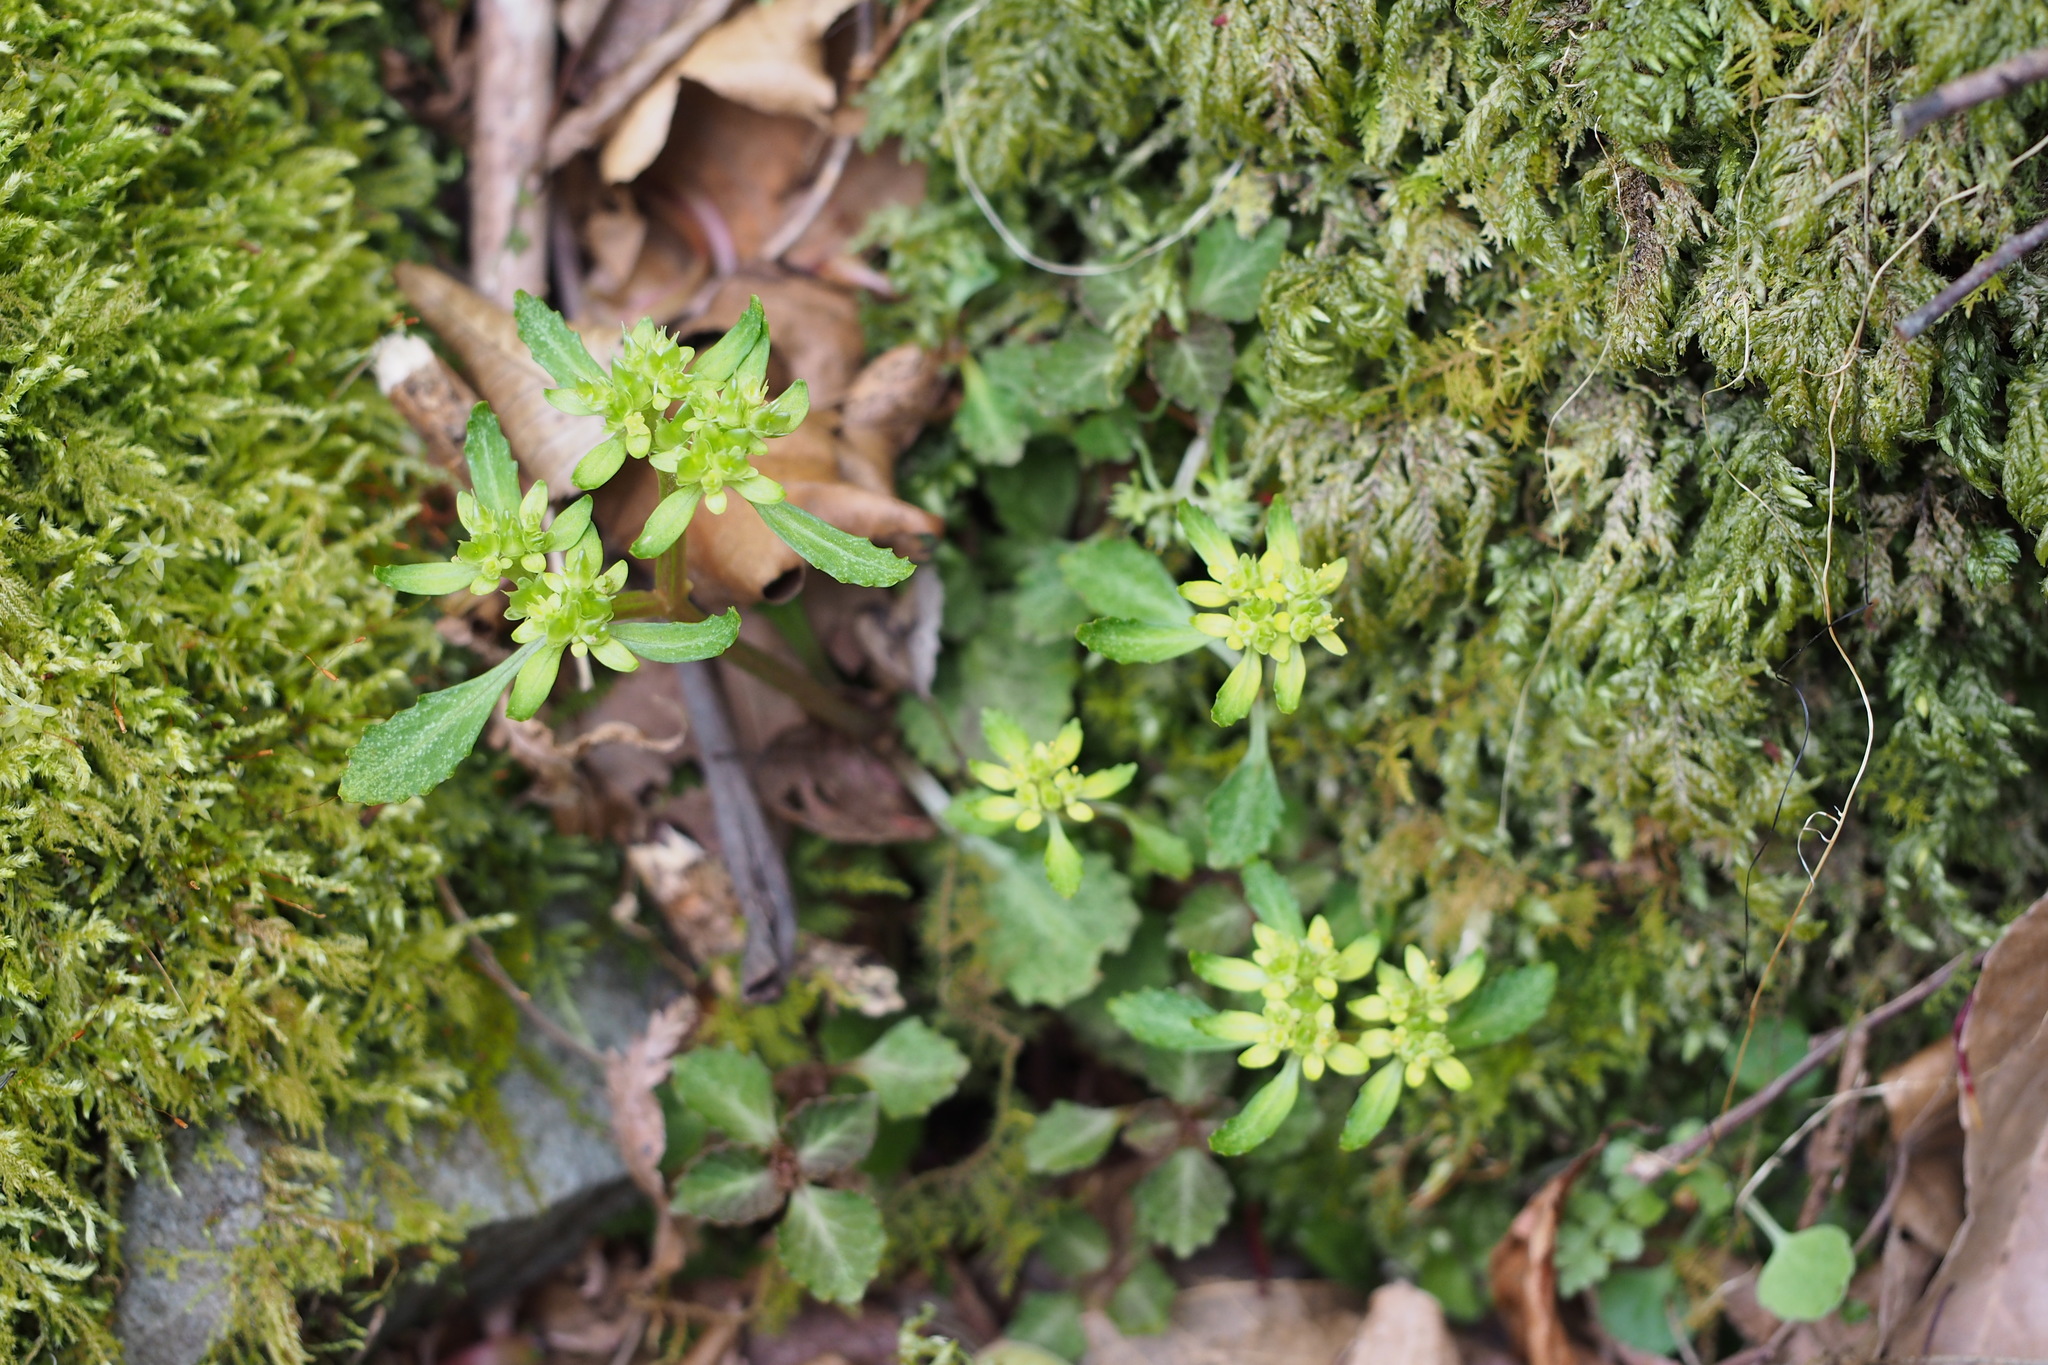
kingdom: Plantae
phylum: Tracheophyta
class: Magnoliopsida
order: Saxifragales
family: Saxifragaceae
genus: Chrysosplenium
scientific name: Chrysosplenium macrostemon
